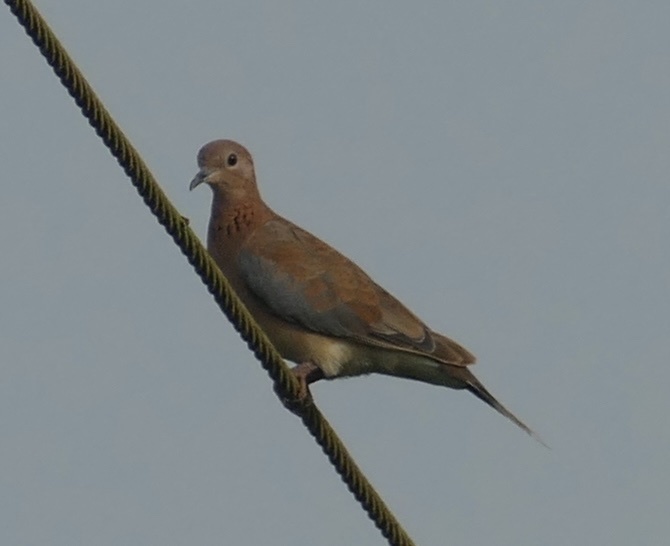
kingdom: Animalia
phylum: Chordata
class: Aves
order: Columbiformes
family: Columbidae
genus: Spilopelia
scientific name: Spilopelia senegalensis
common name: Laughing dove
